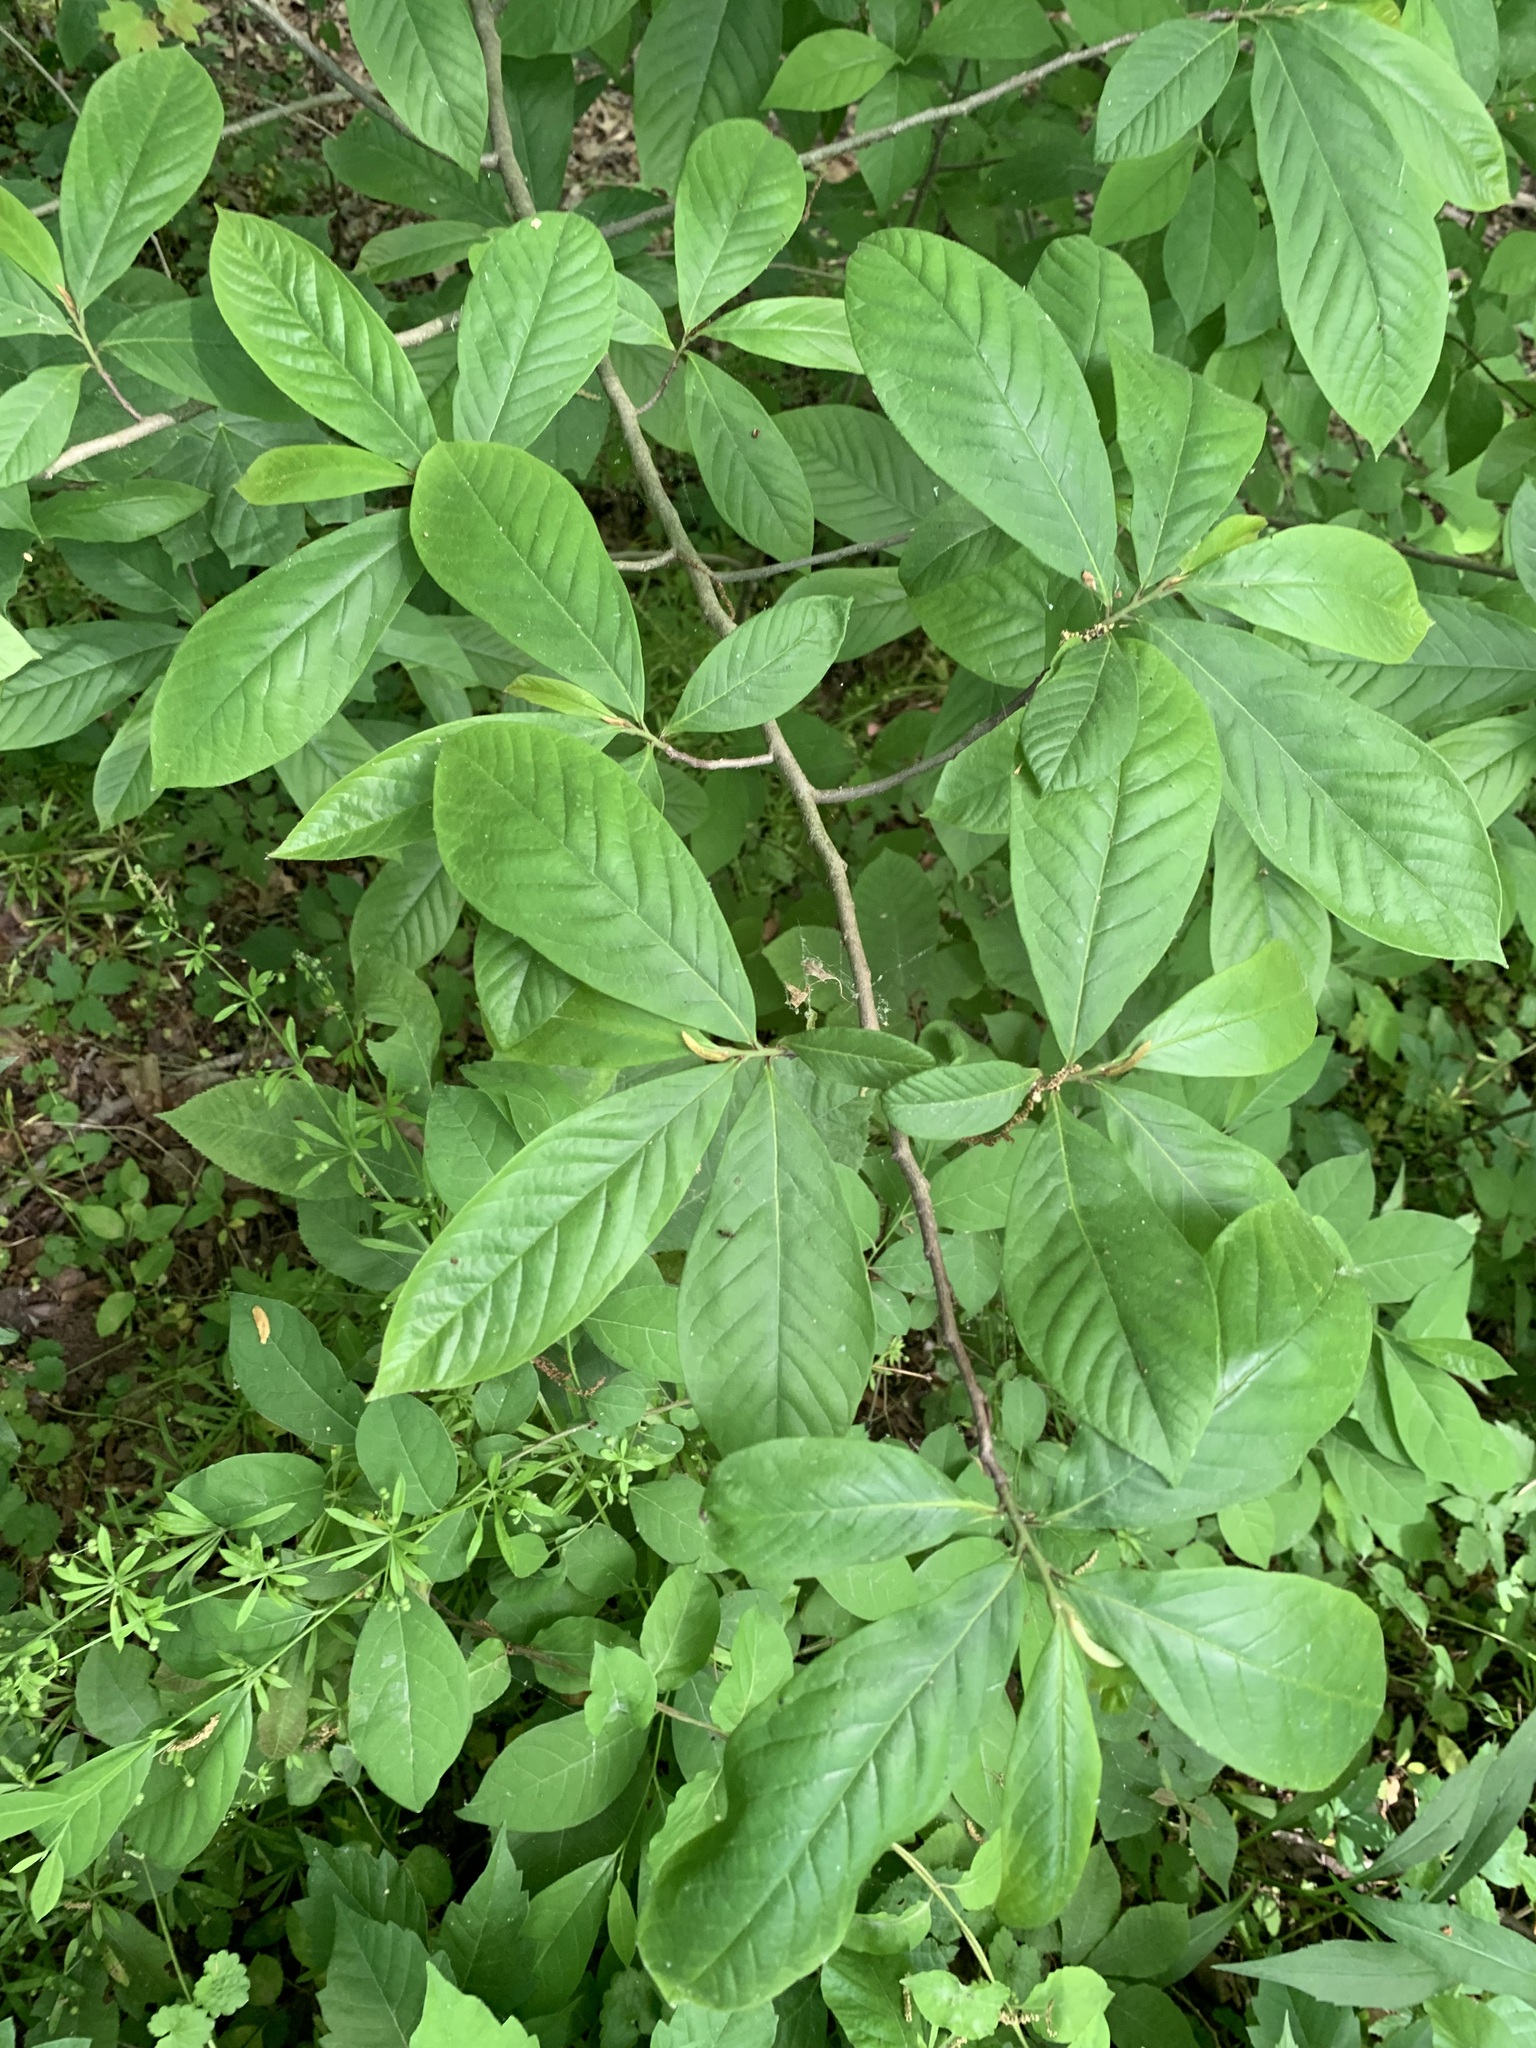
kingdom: Plantae
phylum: Tracheophyta
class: Magnoliopsida
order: Magnoliales
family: Annonaceae
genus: Asimina
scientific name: Asimina triloba
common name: Dog-banana
